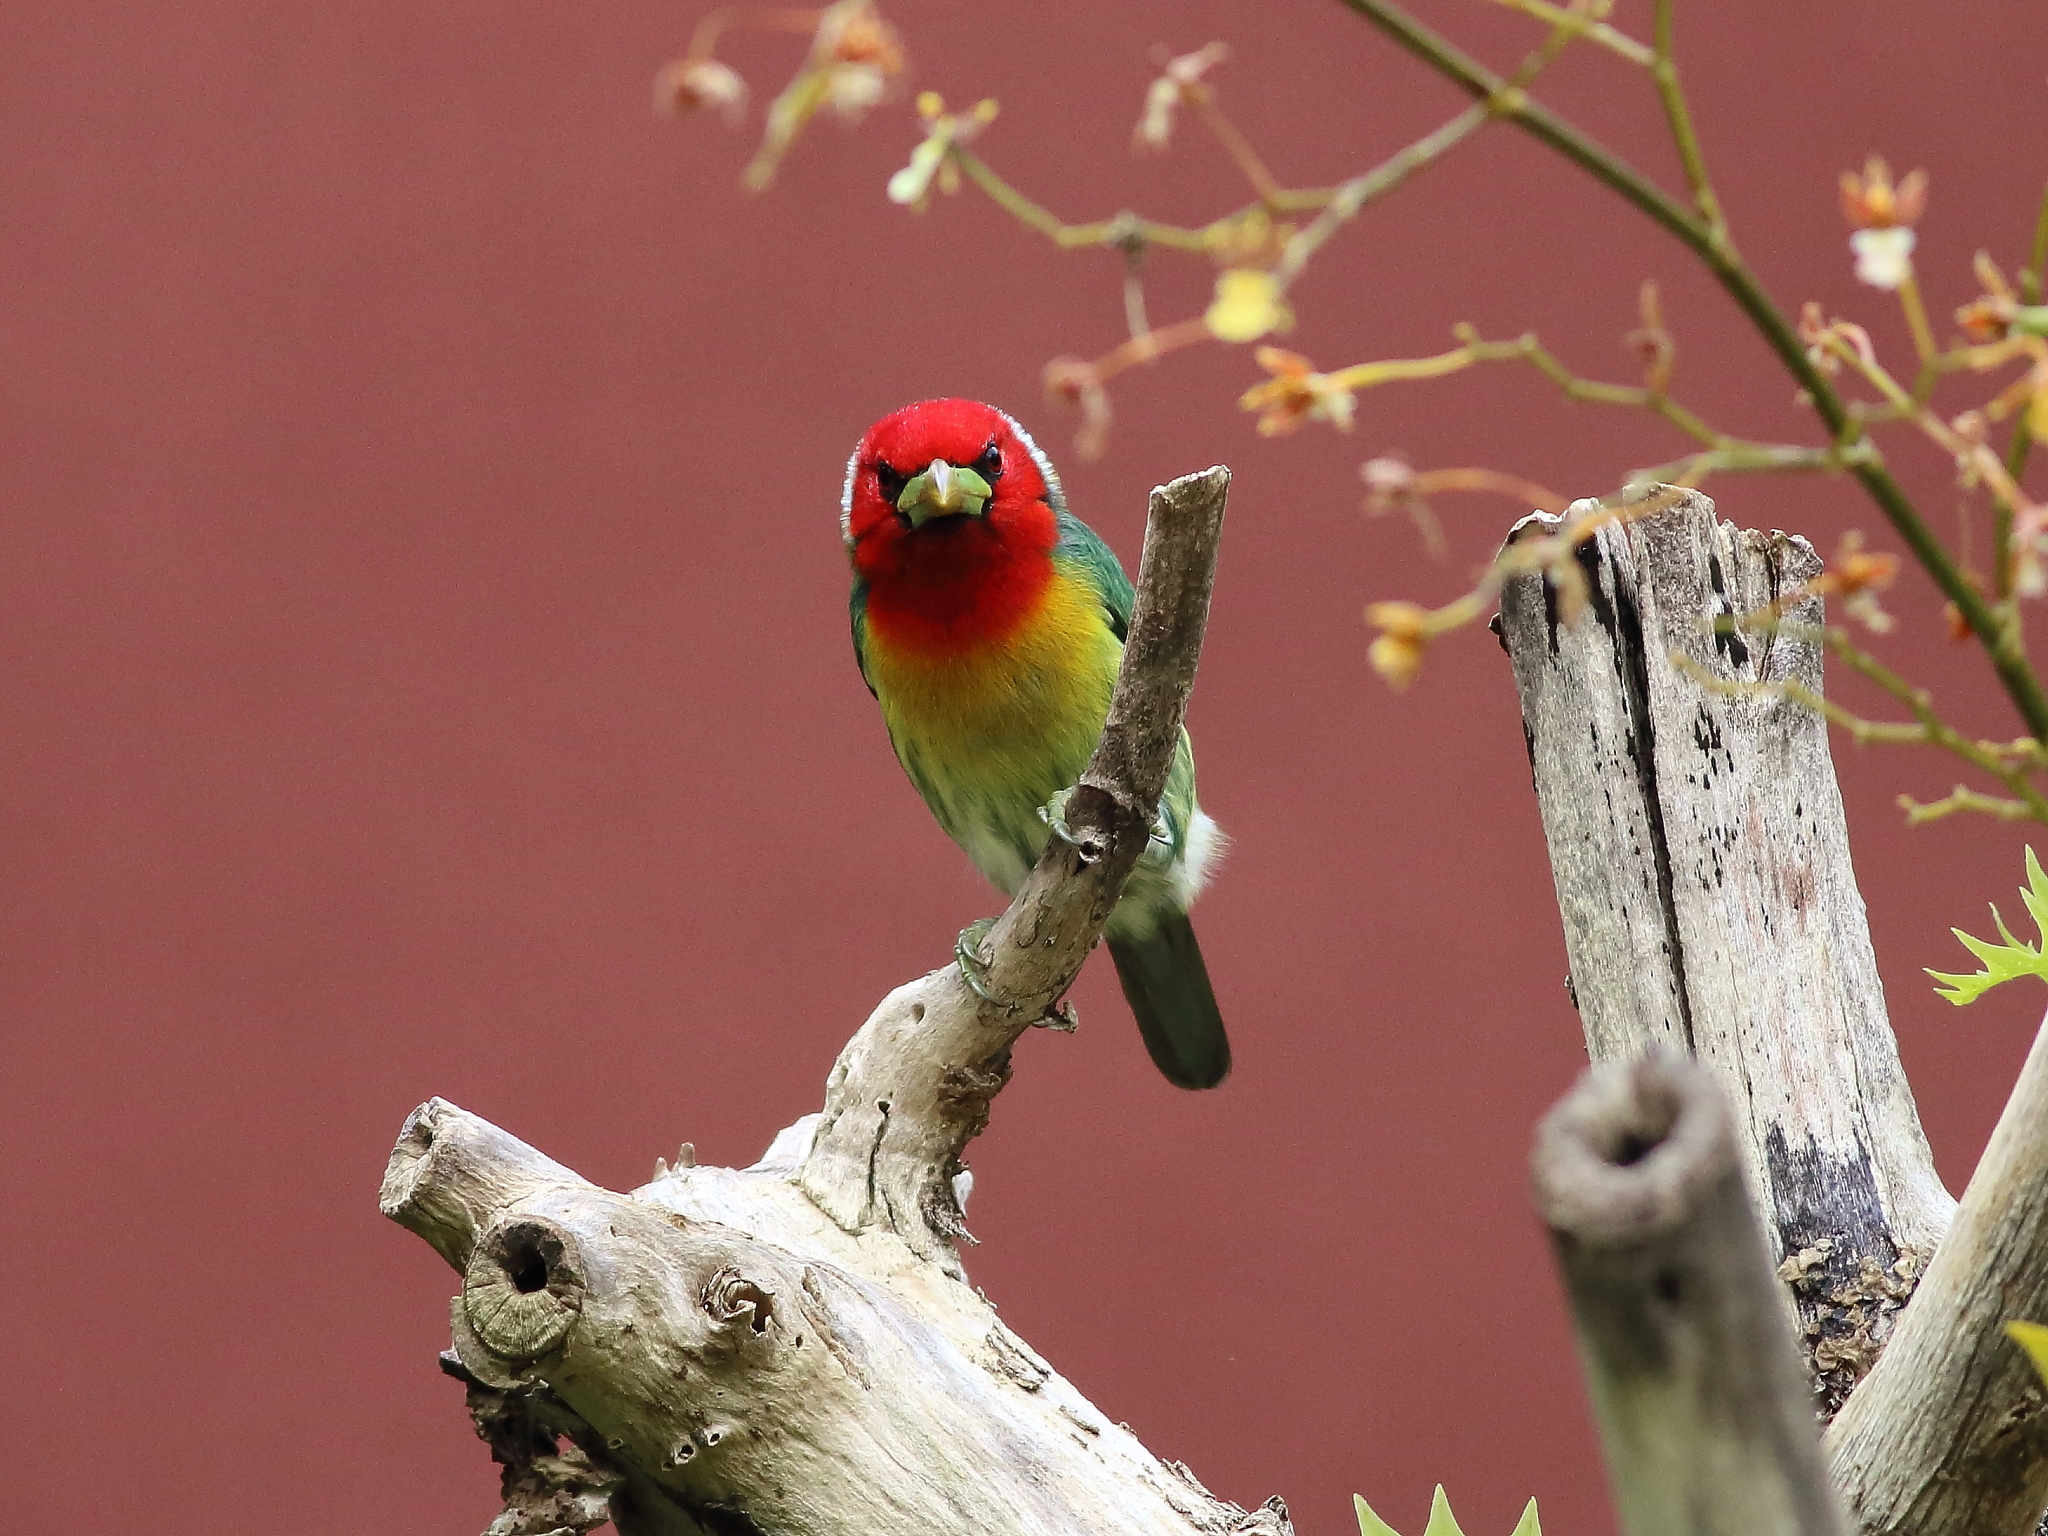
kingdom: Animalia
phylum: Chordata
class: Aves
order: Piciformes
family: Capitonidae
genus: Eubucco
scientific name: Eubucco bourcierii
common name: Red-headed barbet
